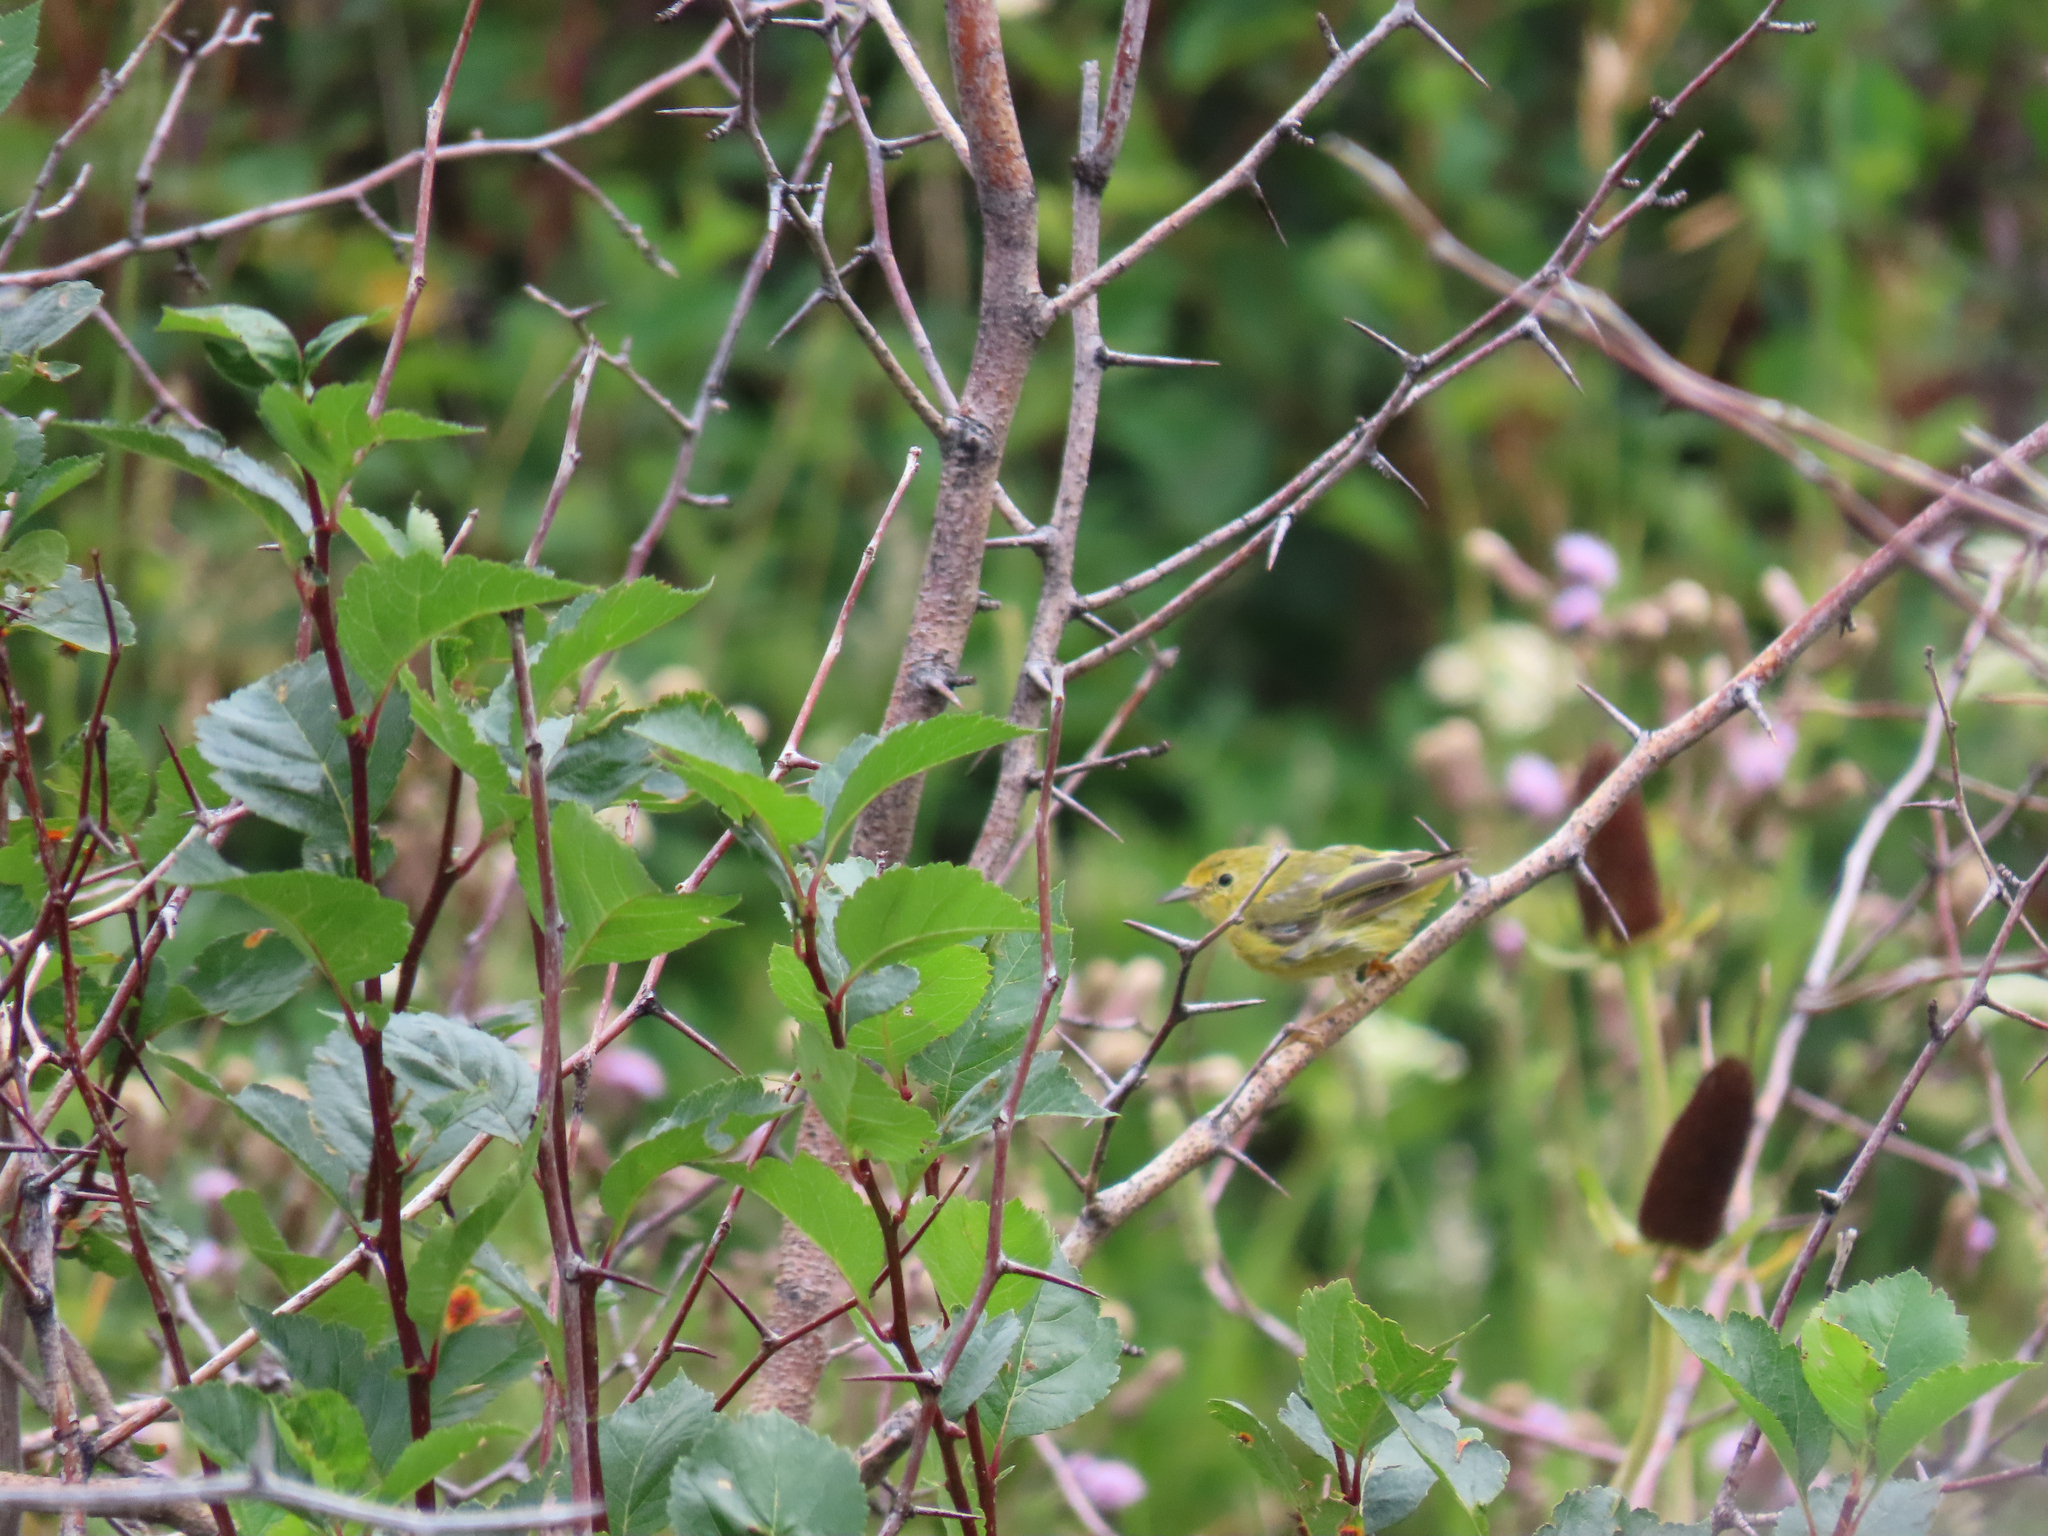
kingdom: Animalia
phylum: Chordata
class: Aves
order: Passeriformes
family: Parulidae
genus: Setophaga
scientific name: Setophaga petechia
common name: Yellow warbler
